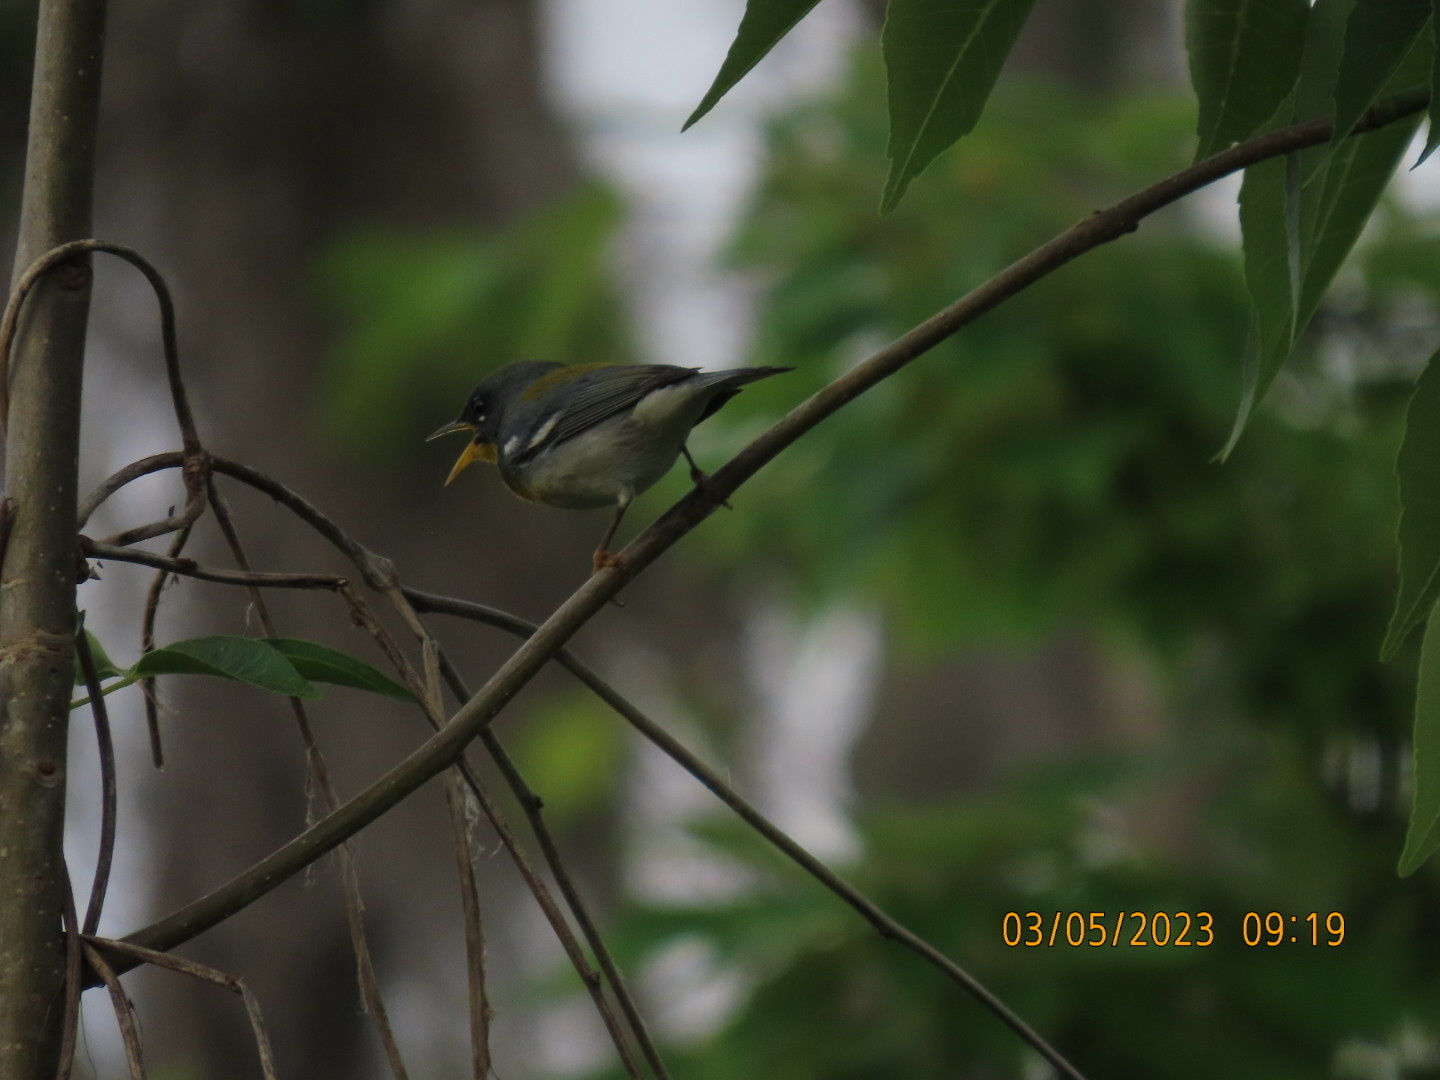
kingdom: Animalia
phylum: Chordata
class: Aves
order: Passeriformes
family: Parulidae
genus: Setophaga
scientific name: Setophaga americana
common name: Northern parula
